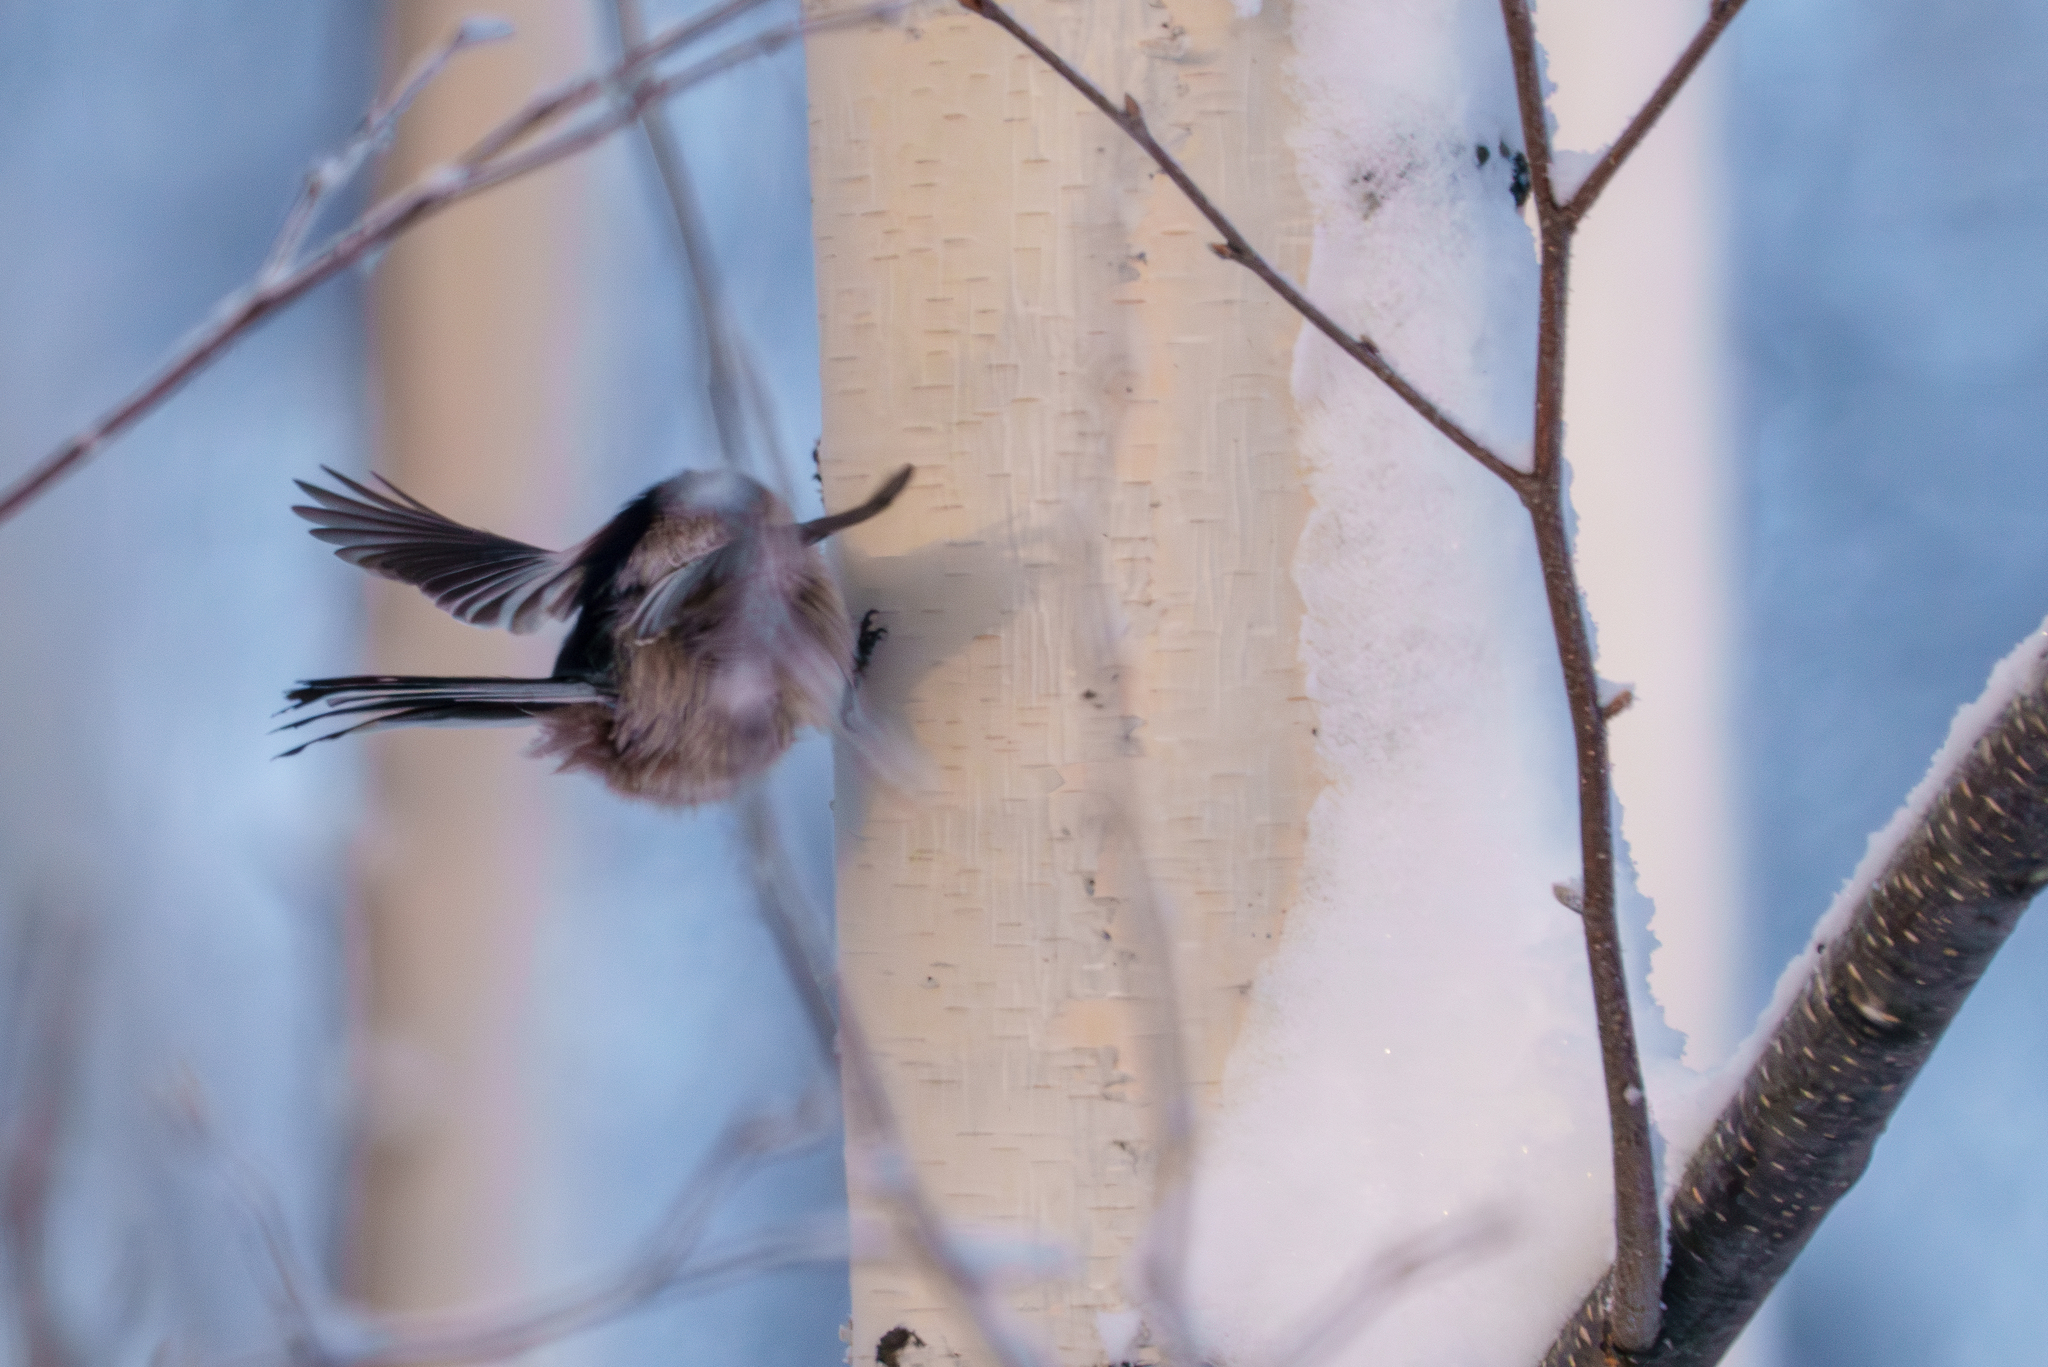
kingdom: Animalia
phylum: Chordata
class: Aves
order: Passeriformes
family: Aegithalidae
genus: Aegithalos
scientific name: Aegithalos caudatus
